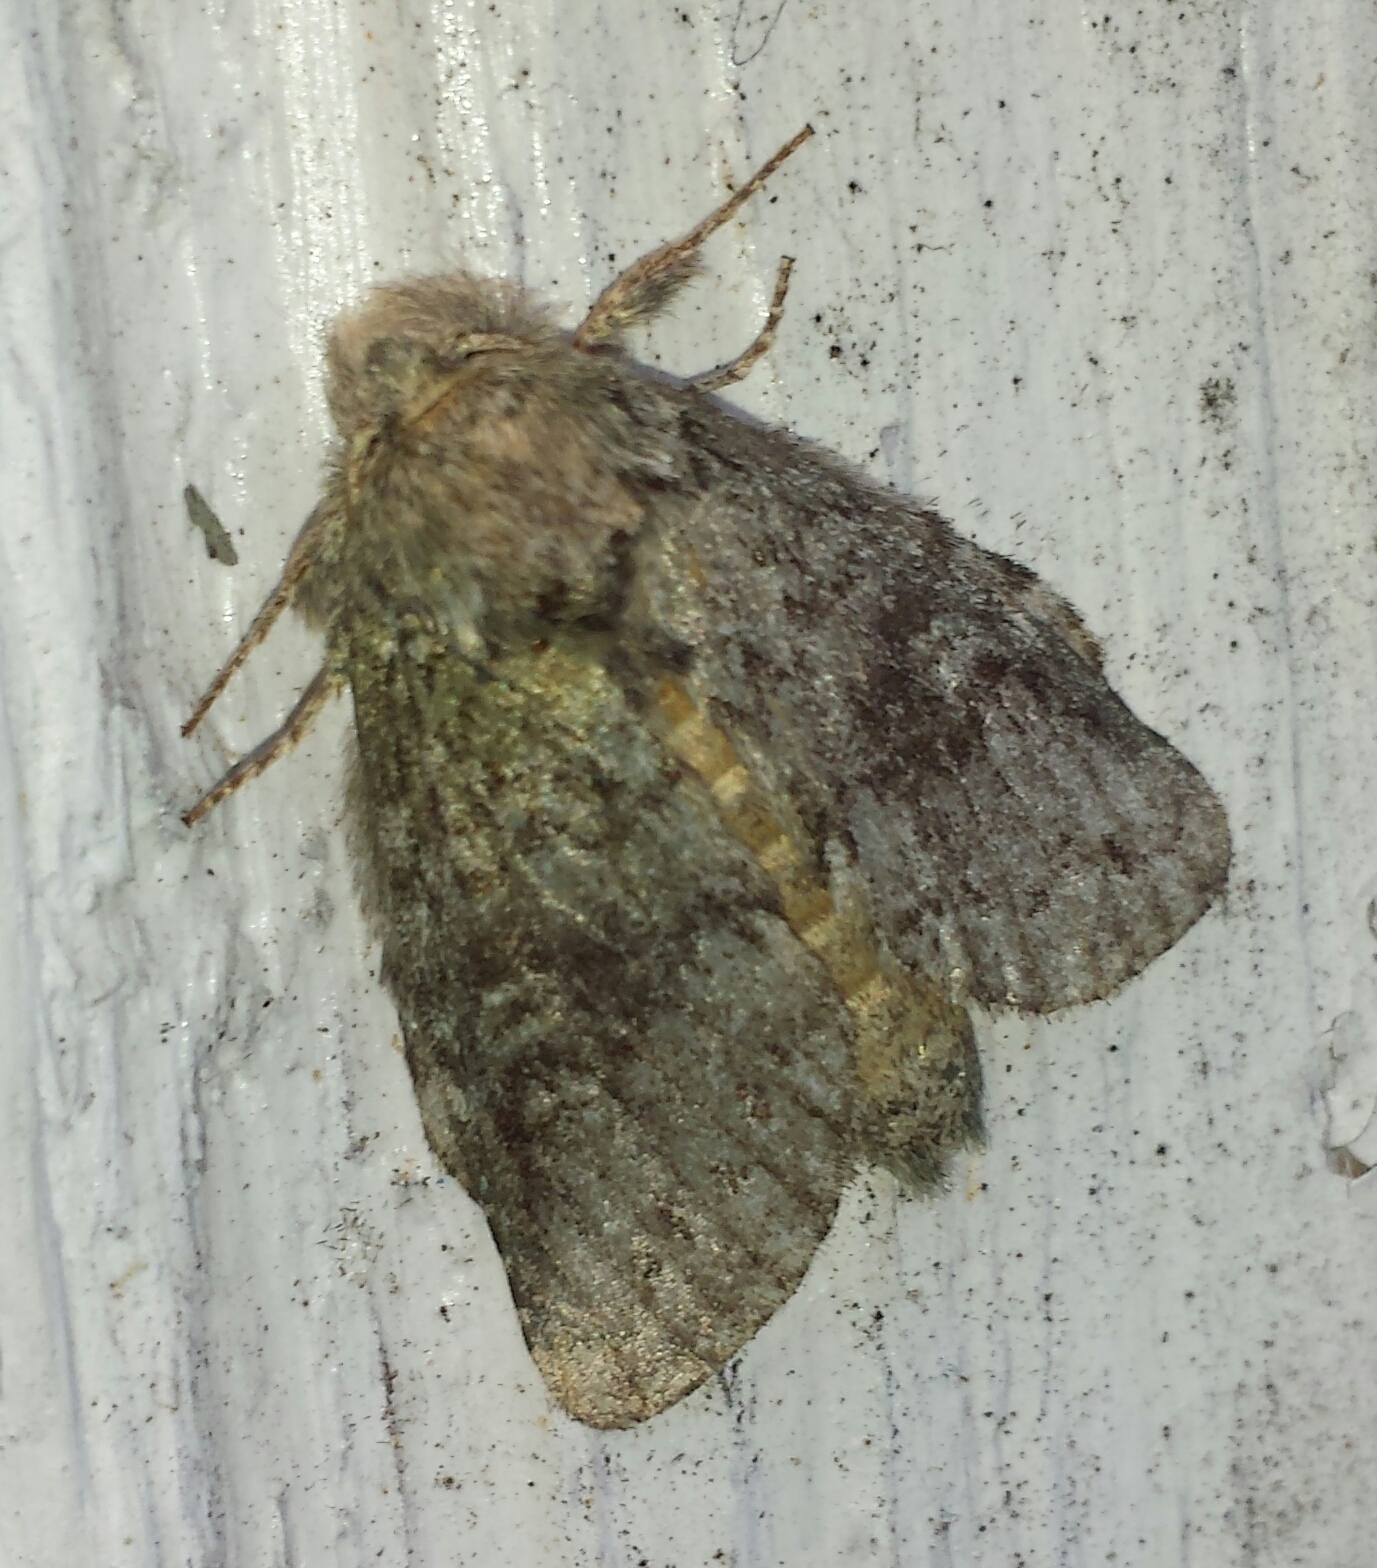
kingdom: Animalia
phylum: Arthropoda
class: Insecta
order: Lepidoptera
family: Notodontidae
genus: Notodonta
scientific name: Notodonta torva
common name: Large dark prominent
